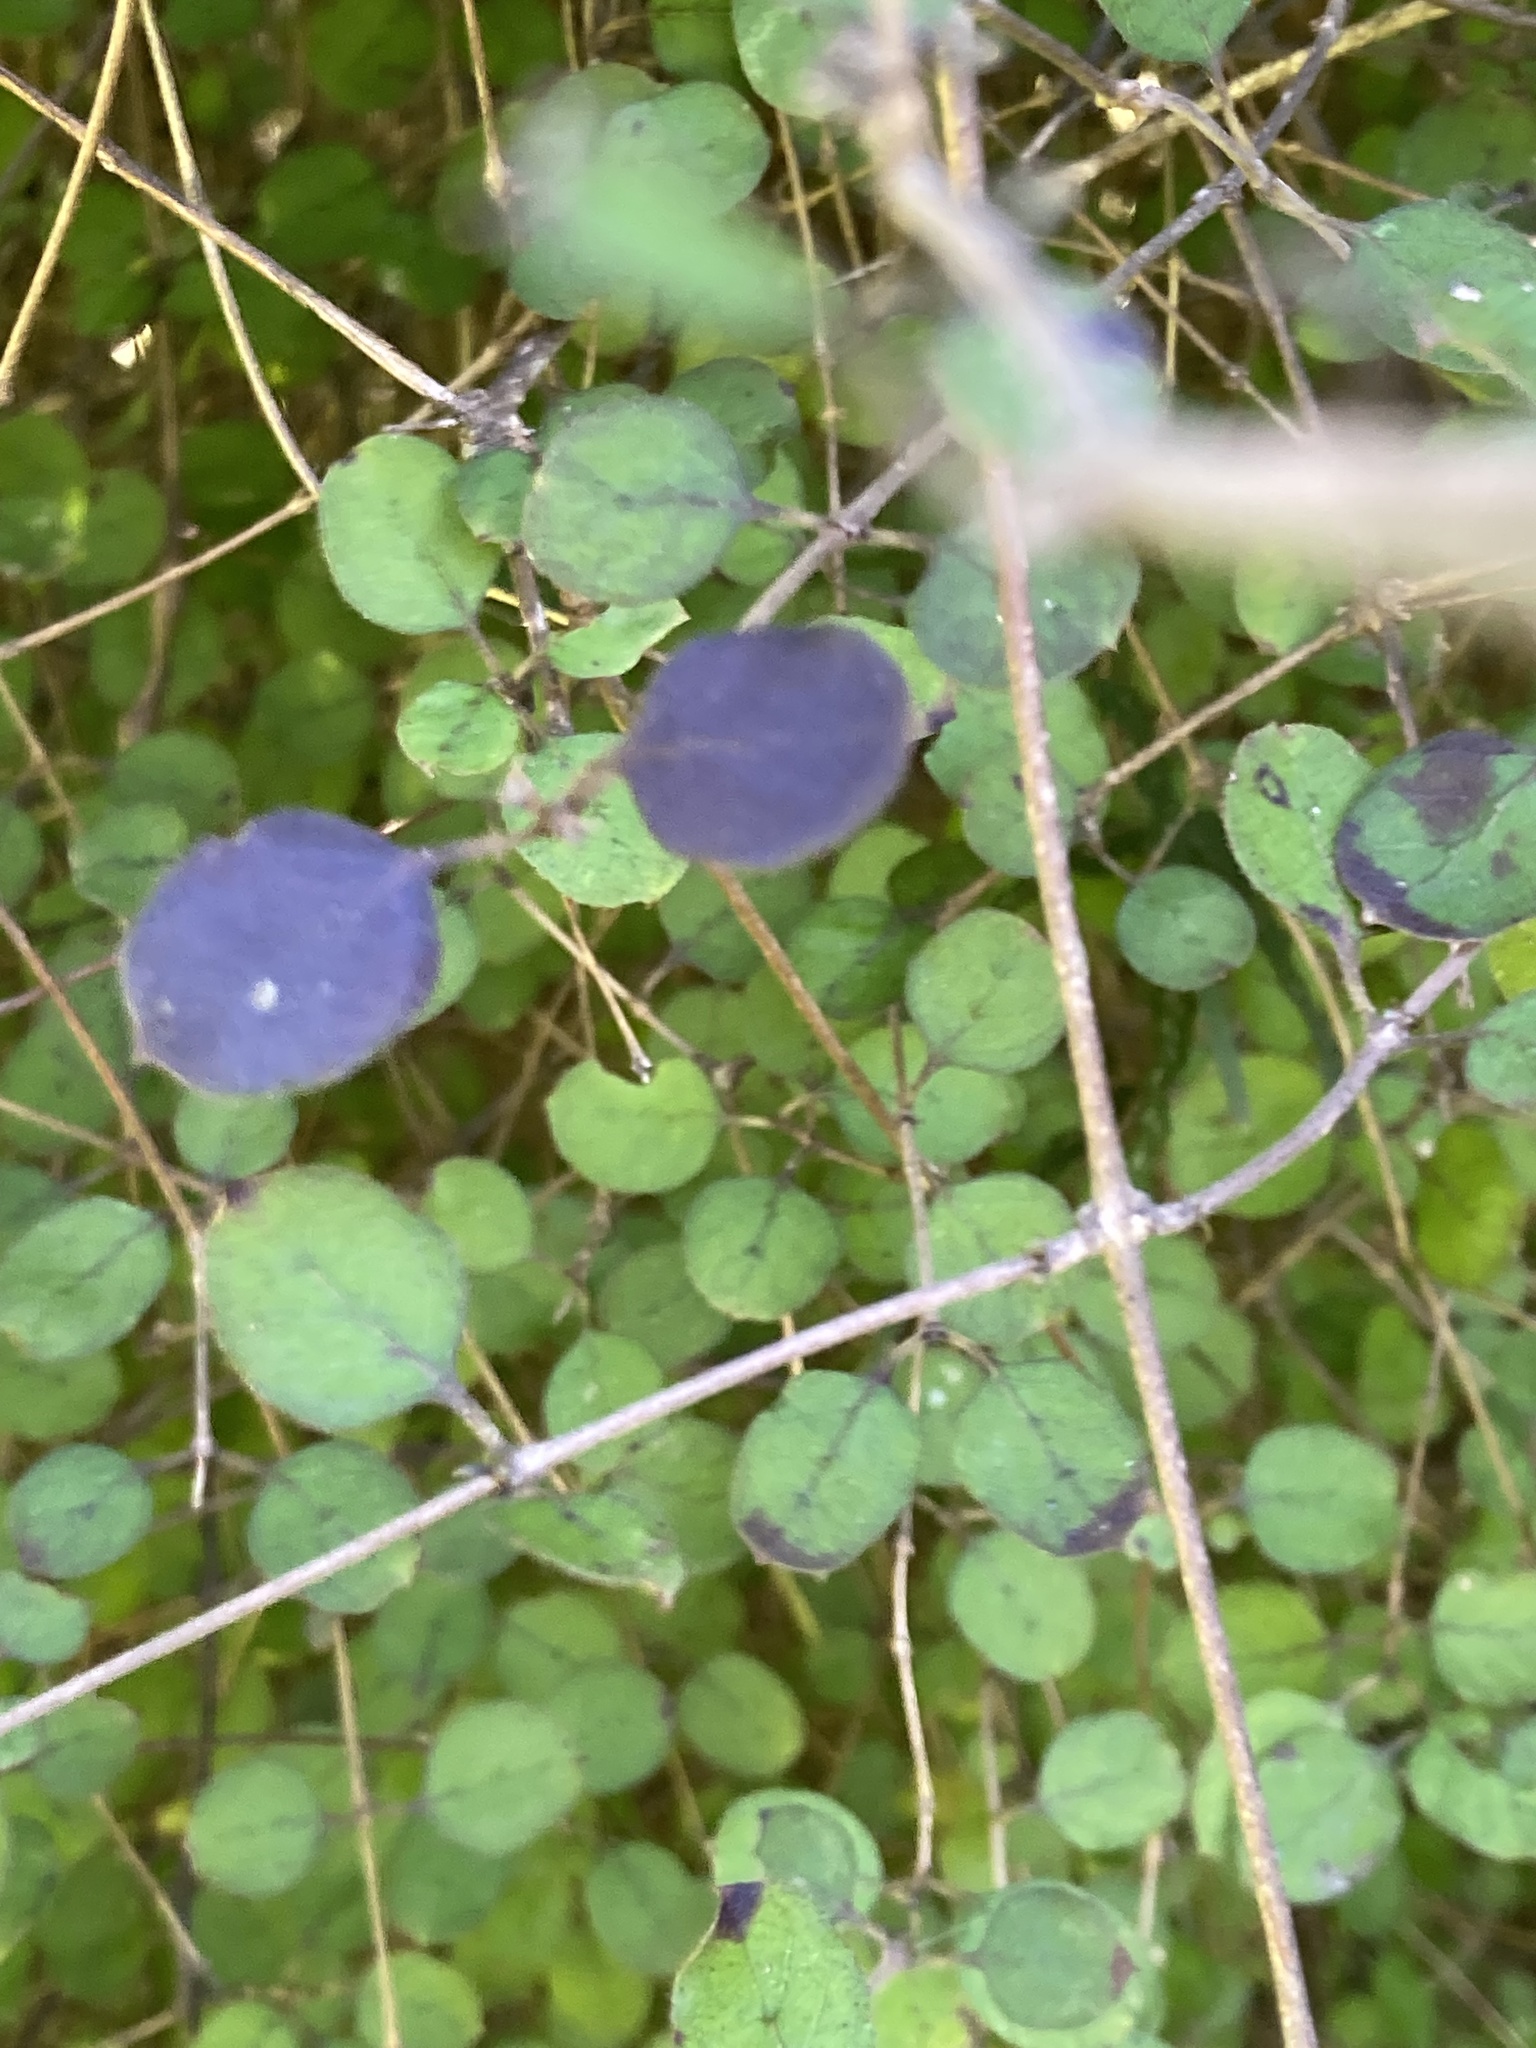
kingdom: Plantae
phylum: Tracheophyta
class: Magnoliopsida
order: Gentianales
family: Rubiaceae
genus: Coprosma
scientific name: Coprosma rotundifolia
